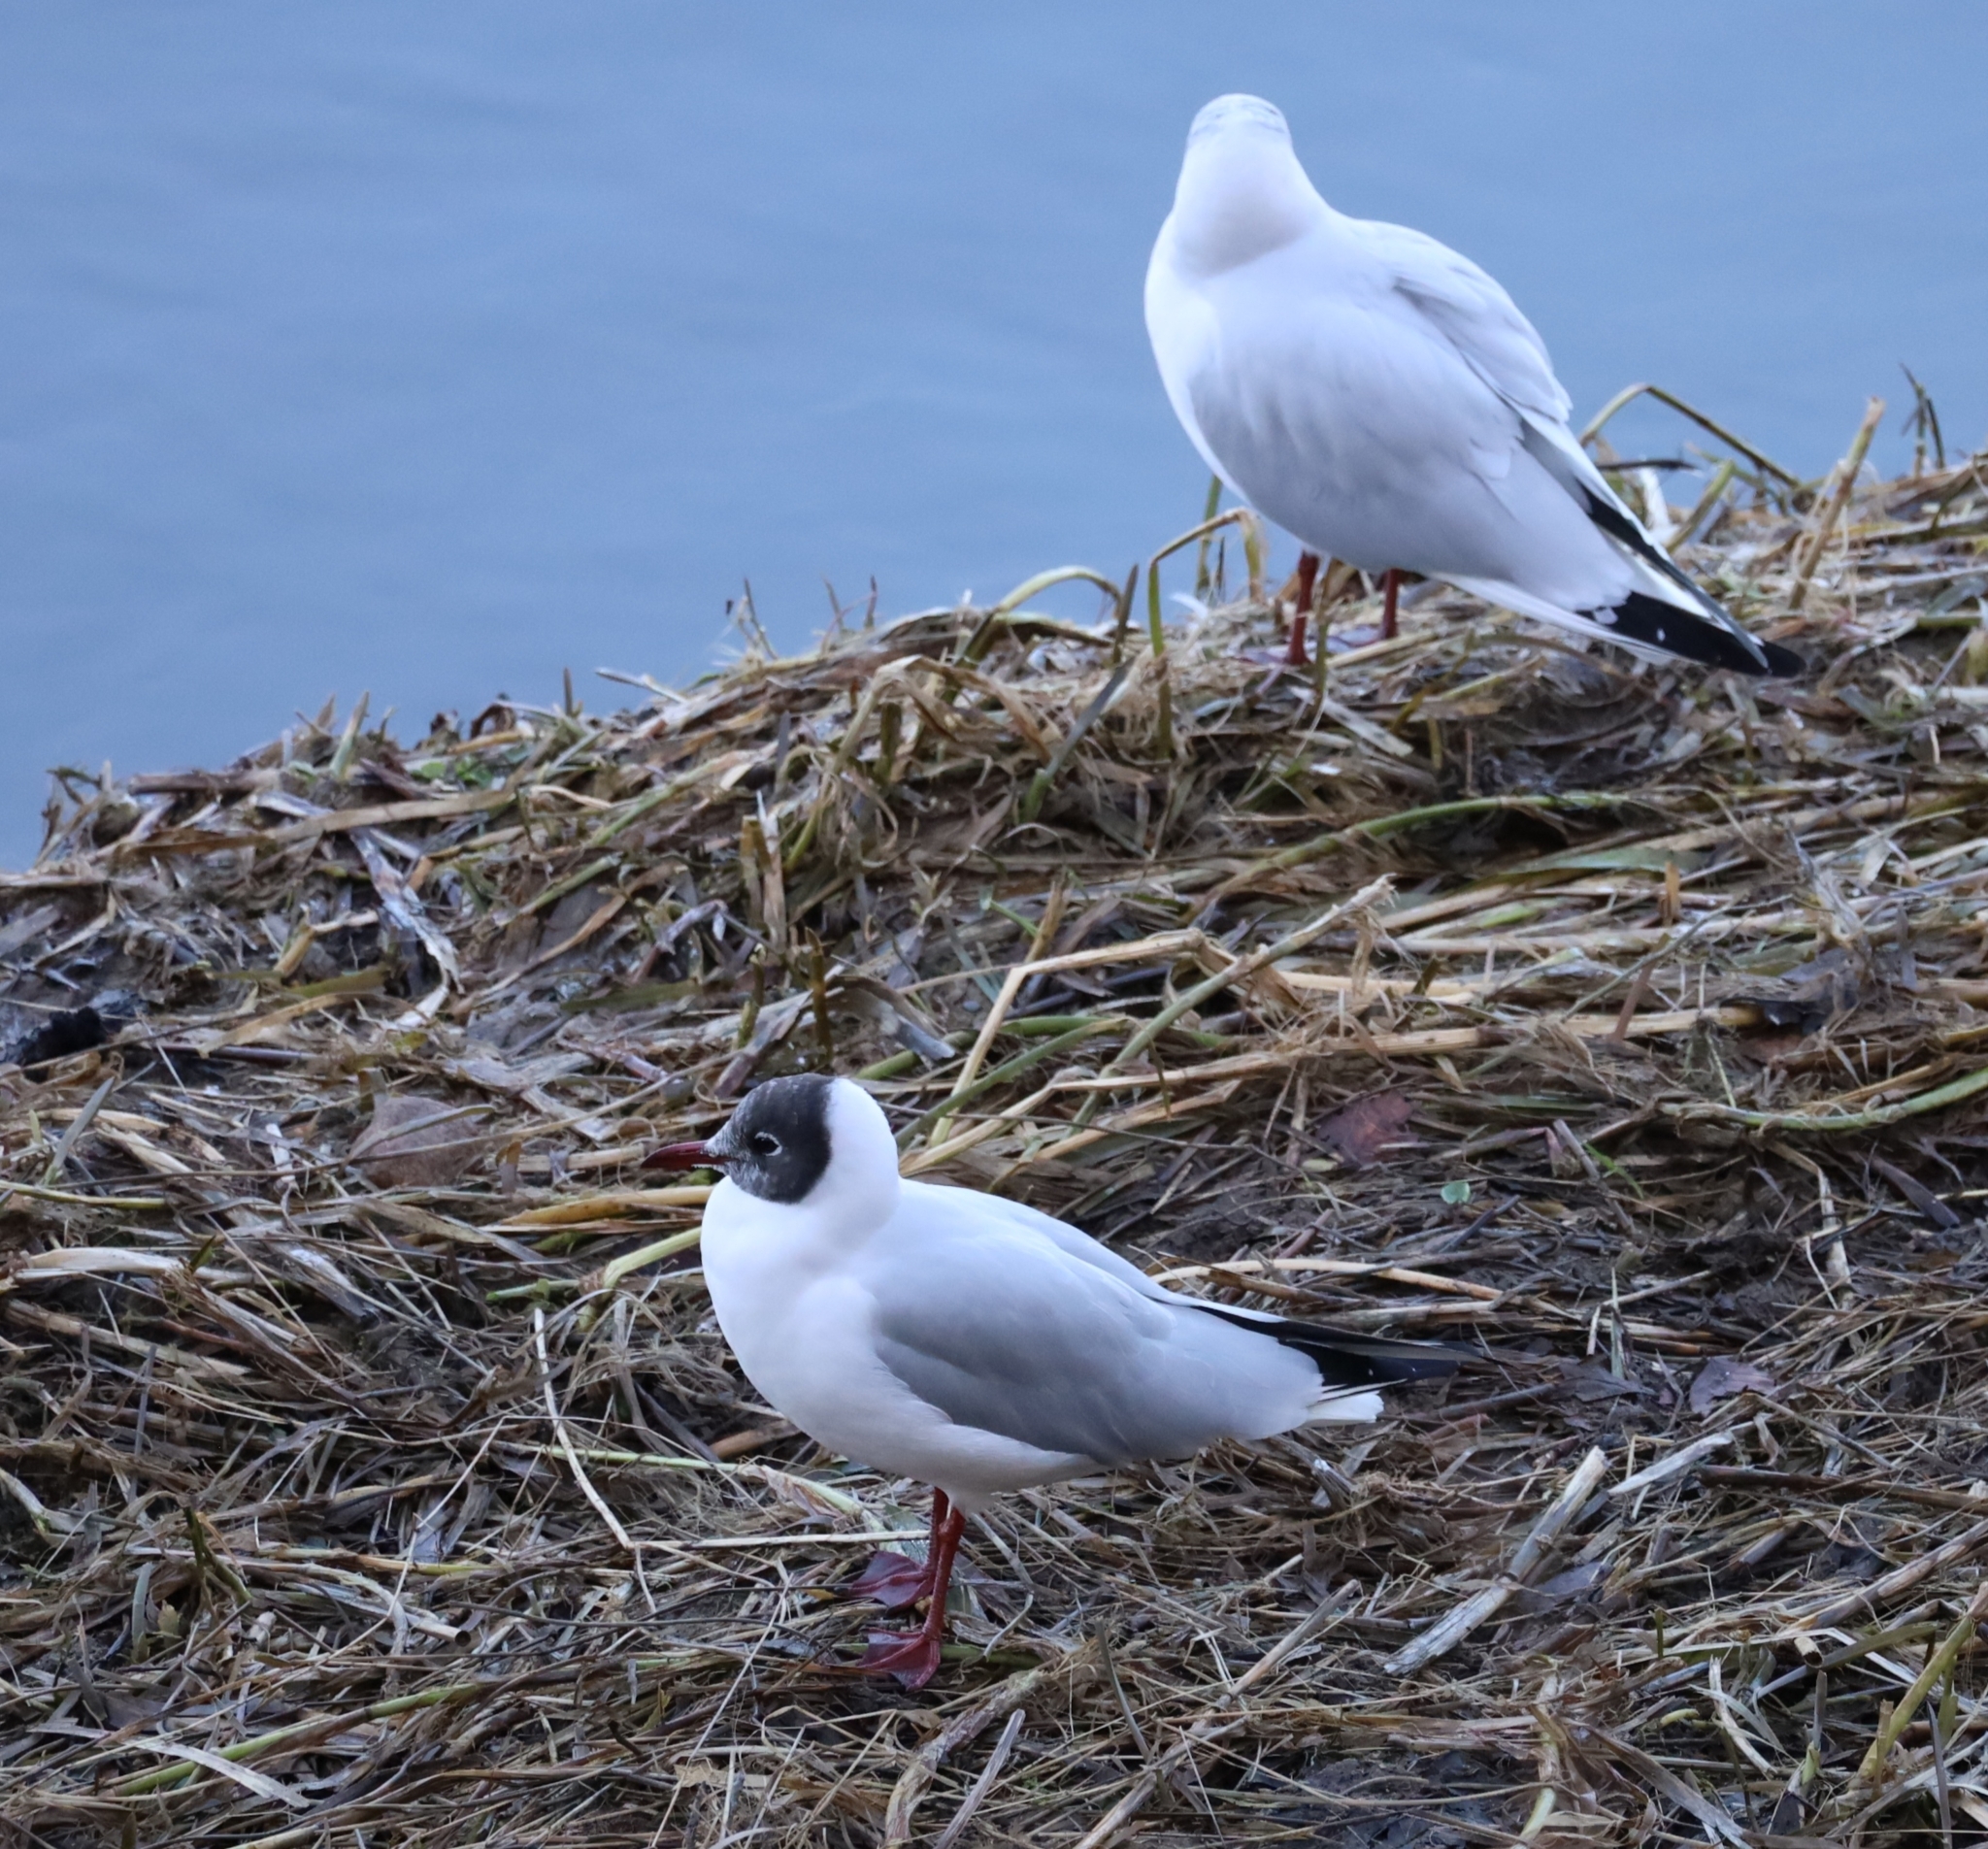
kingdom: Animalia
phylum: Chordata
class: Aves
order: Charadriiformes
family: Laridae
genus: Chroicocephalus
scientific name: Chroicocephalus ridibundus
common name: Black-headed gull
